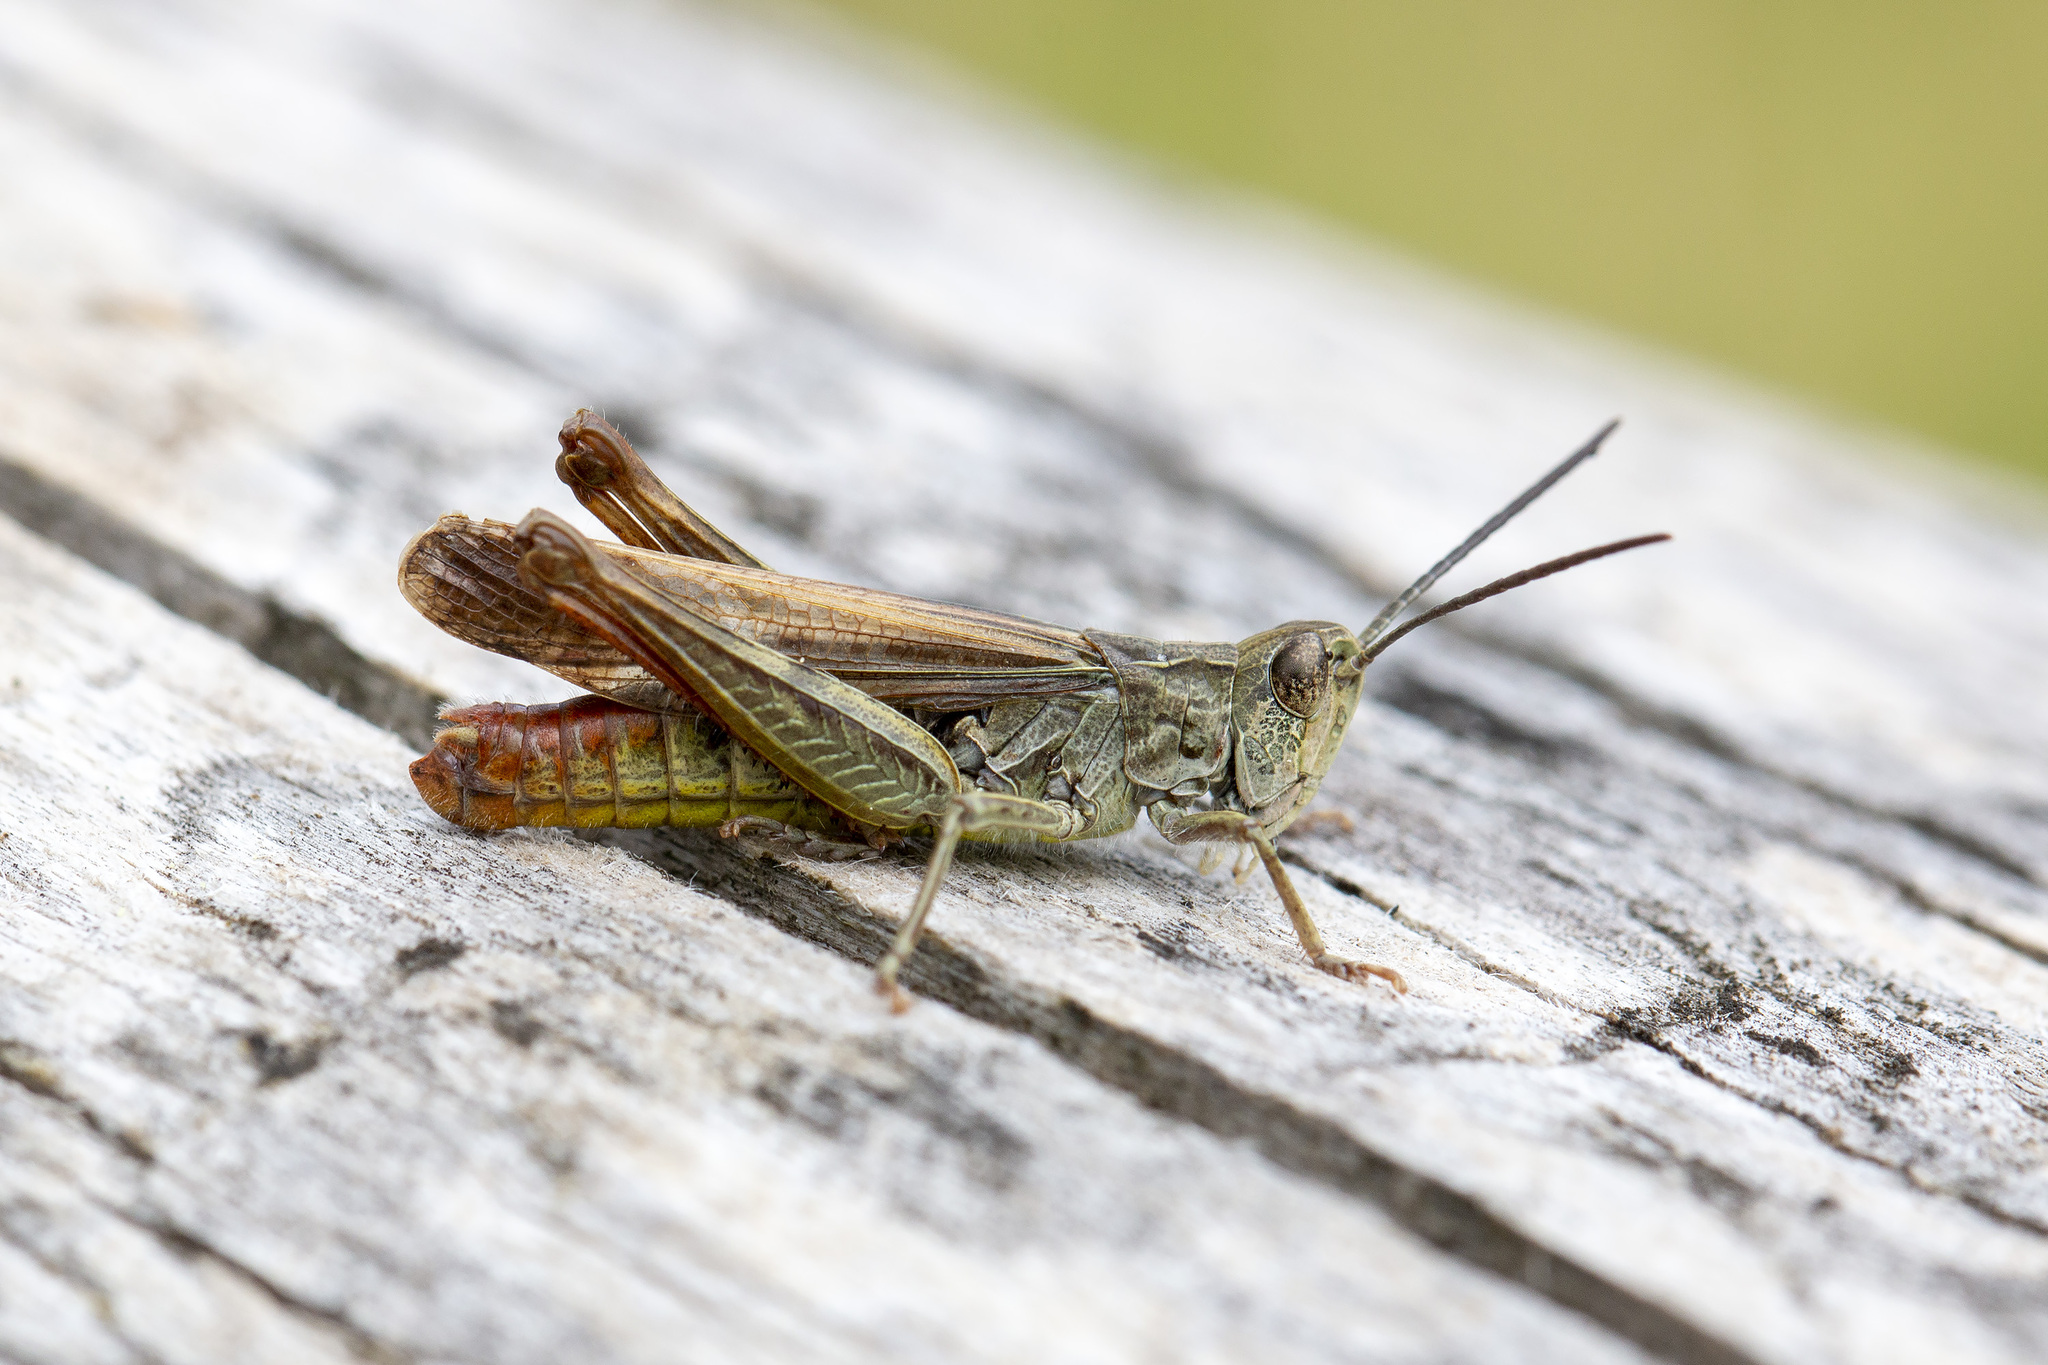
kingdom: Animalia
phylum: Arthropoda
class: Insecta
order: Orthoptera
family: Acrididae
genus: Chorthippus
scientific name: Chorthippus biguttulus
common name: Bow-winged grasshopper
